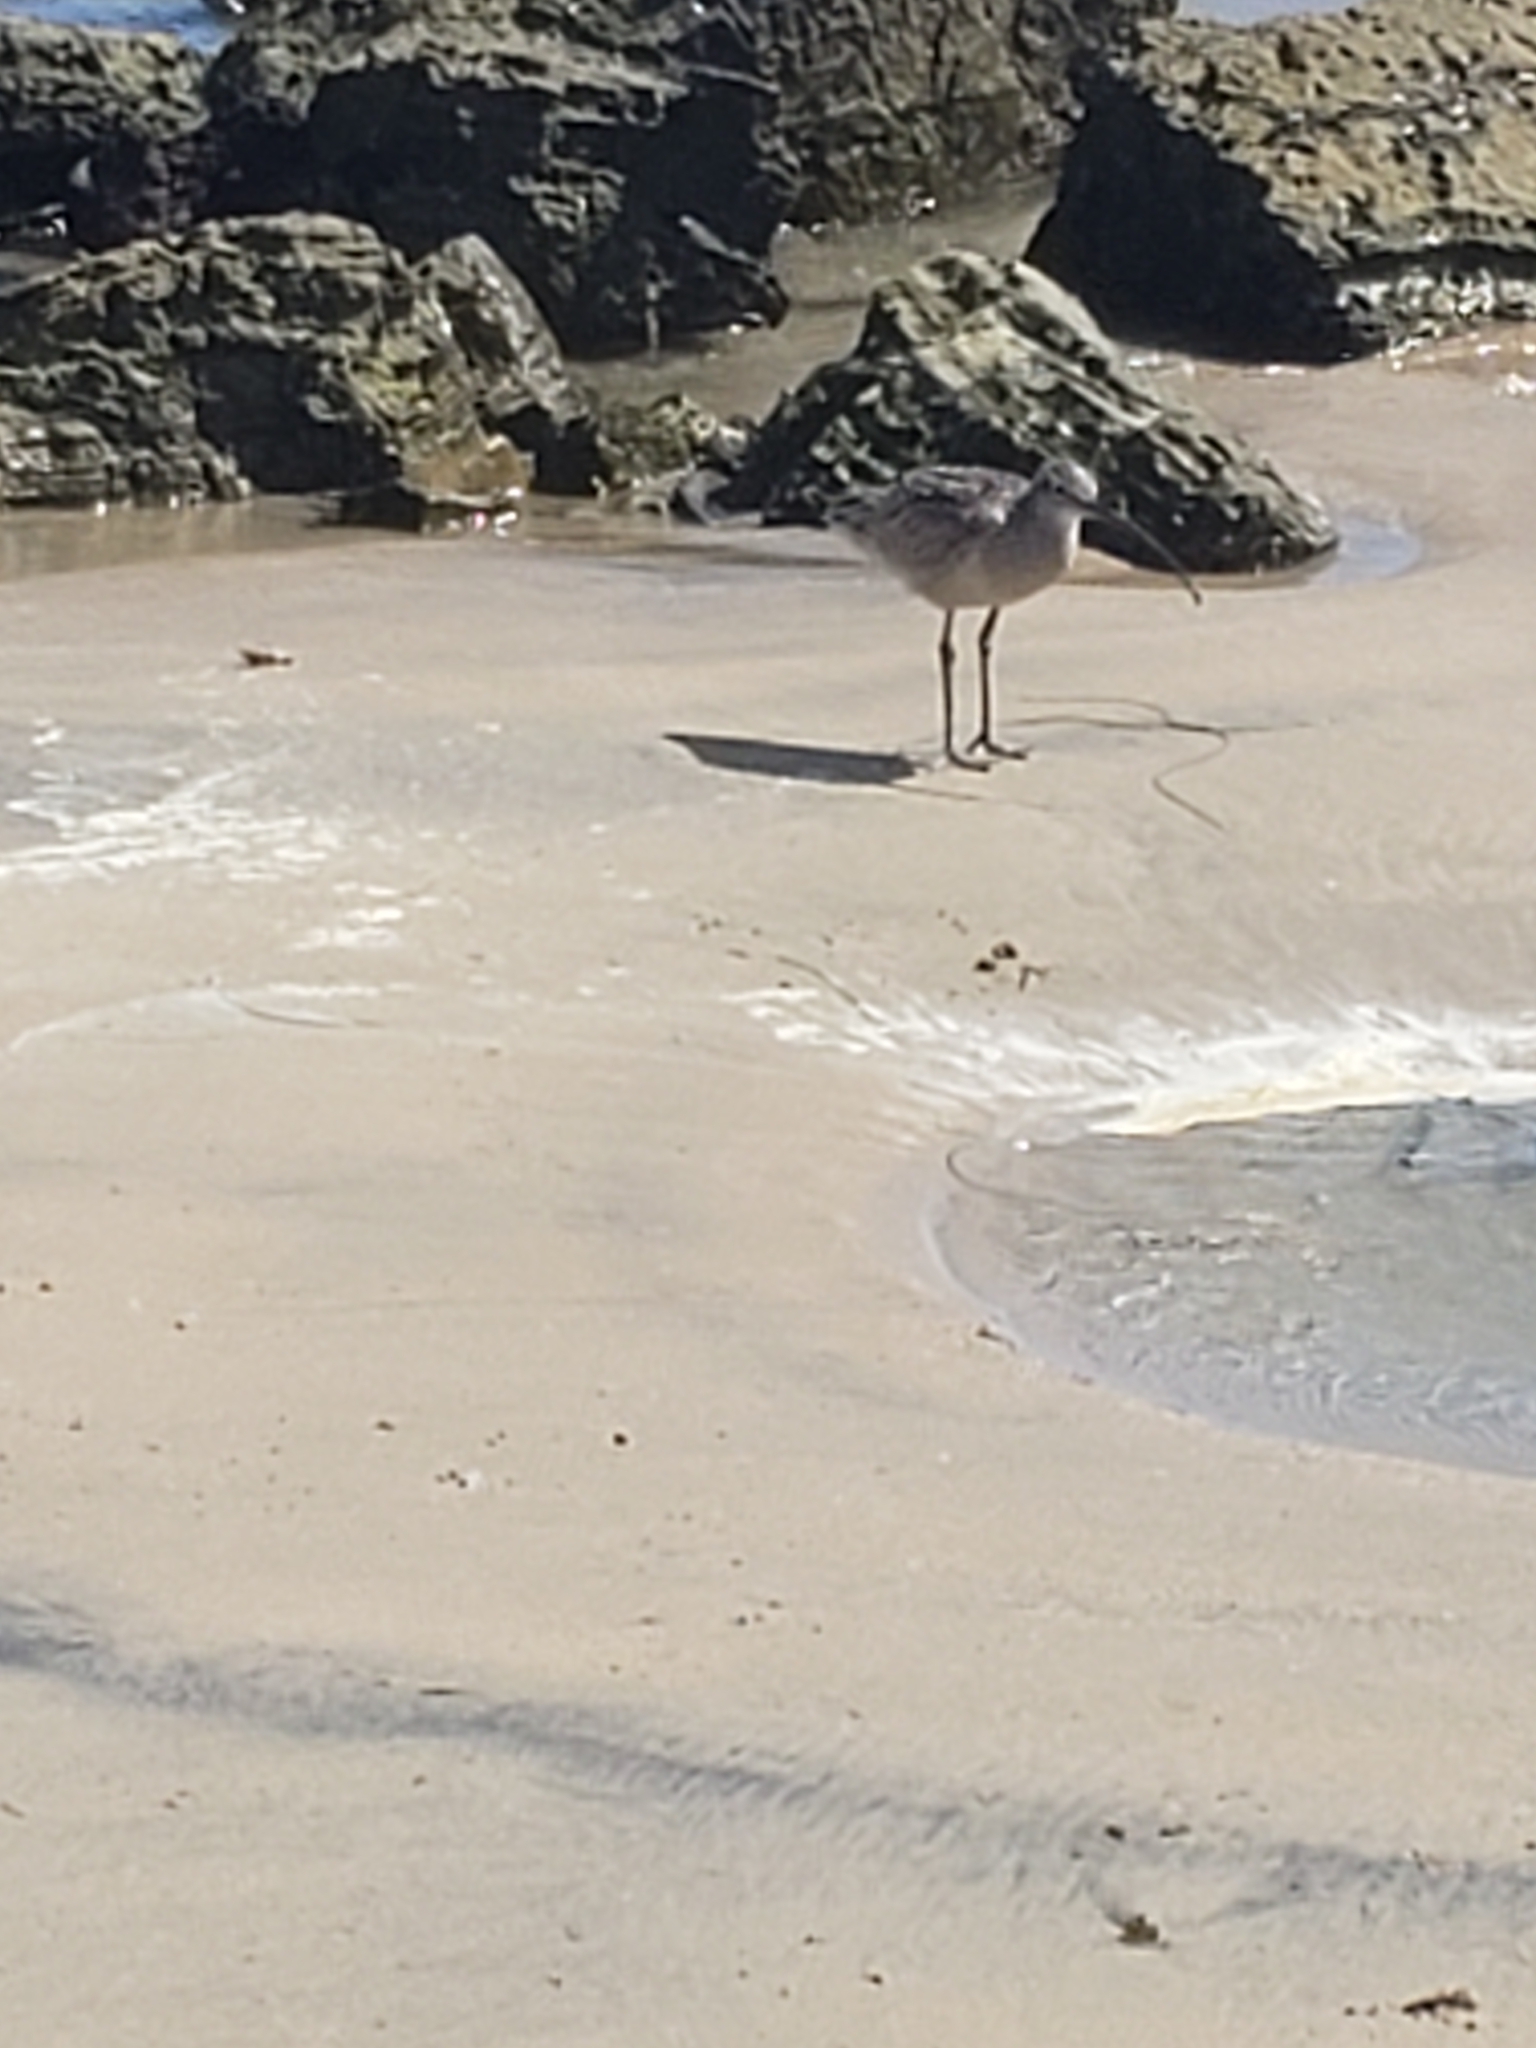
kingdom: Animalia
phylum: Chordata
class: Aves
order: Charadriiformes
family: Scolopacidae
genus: Numenius
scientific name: Numenius americanus
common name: Long-billed curlew
